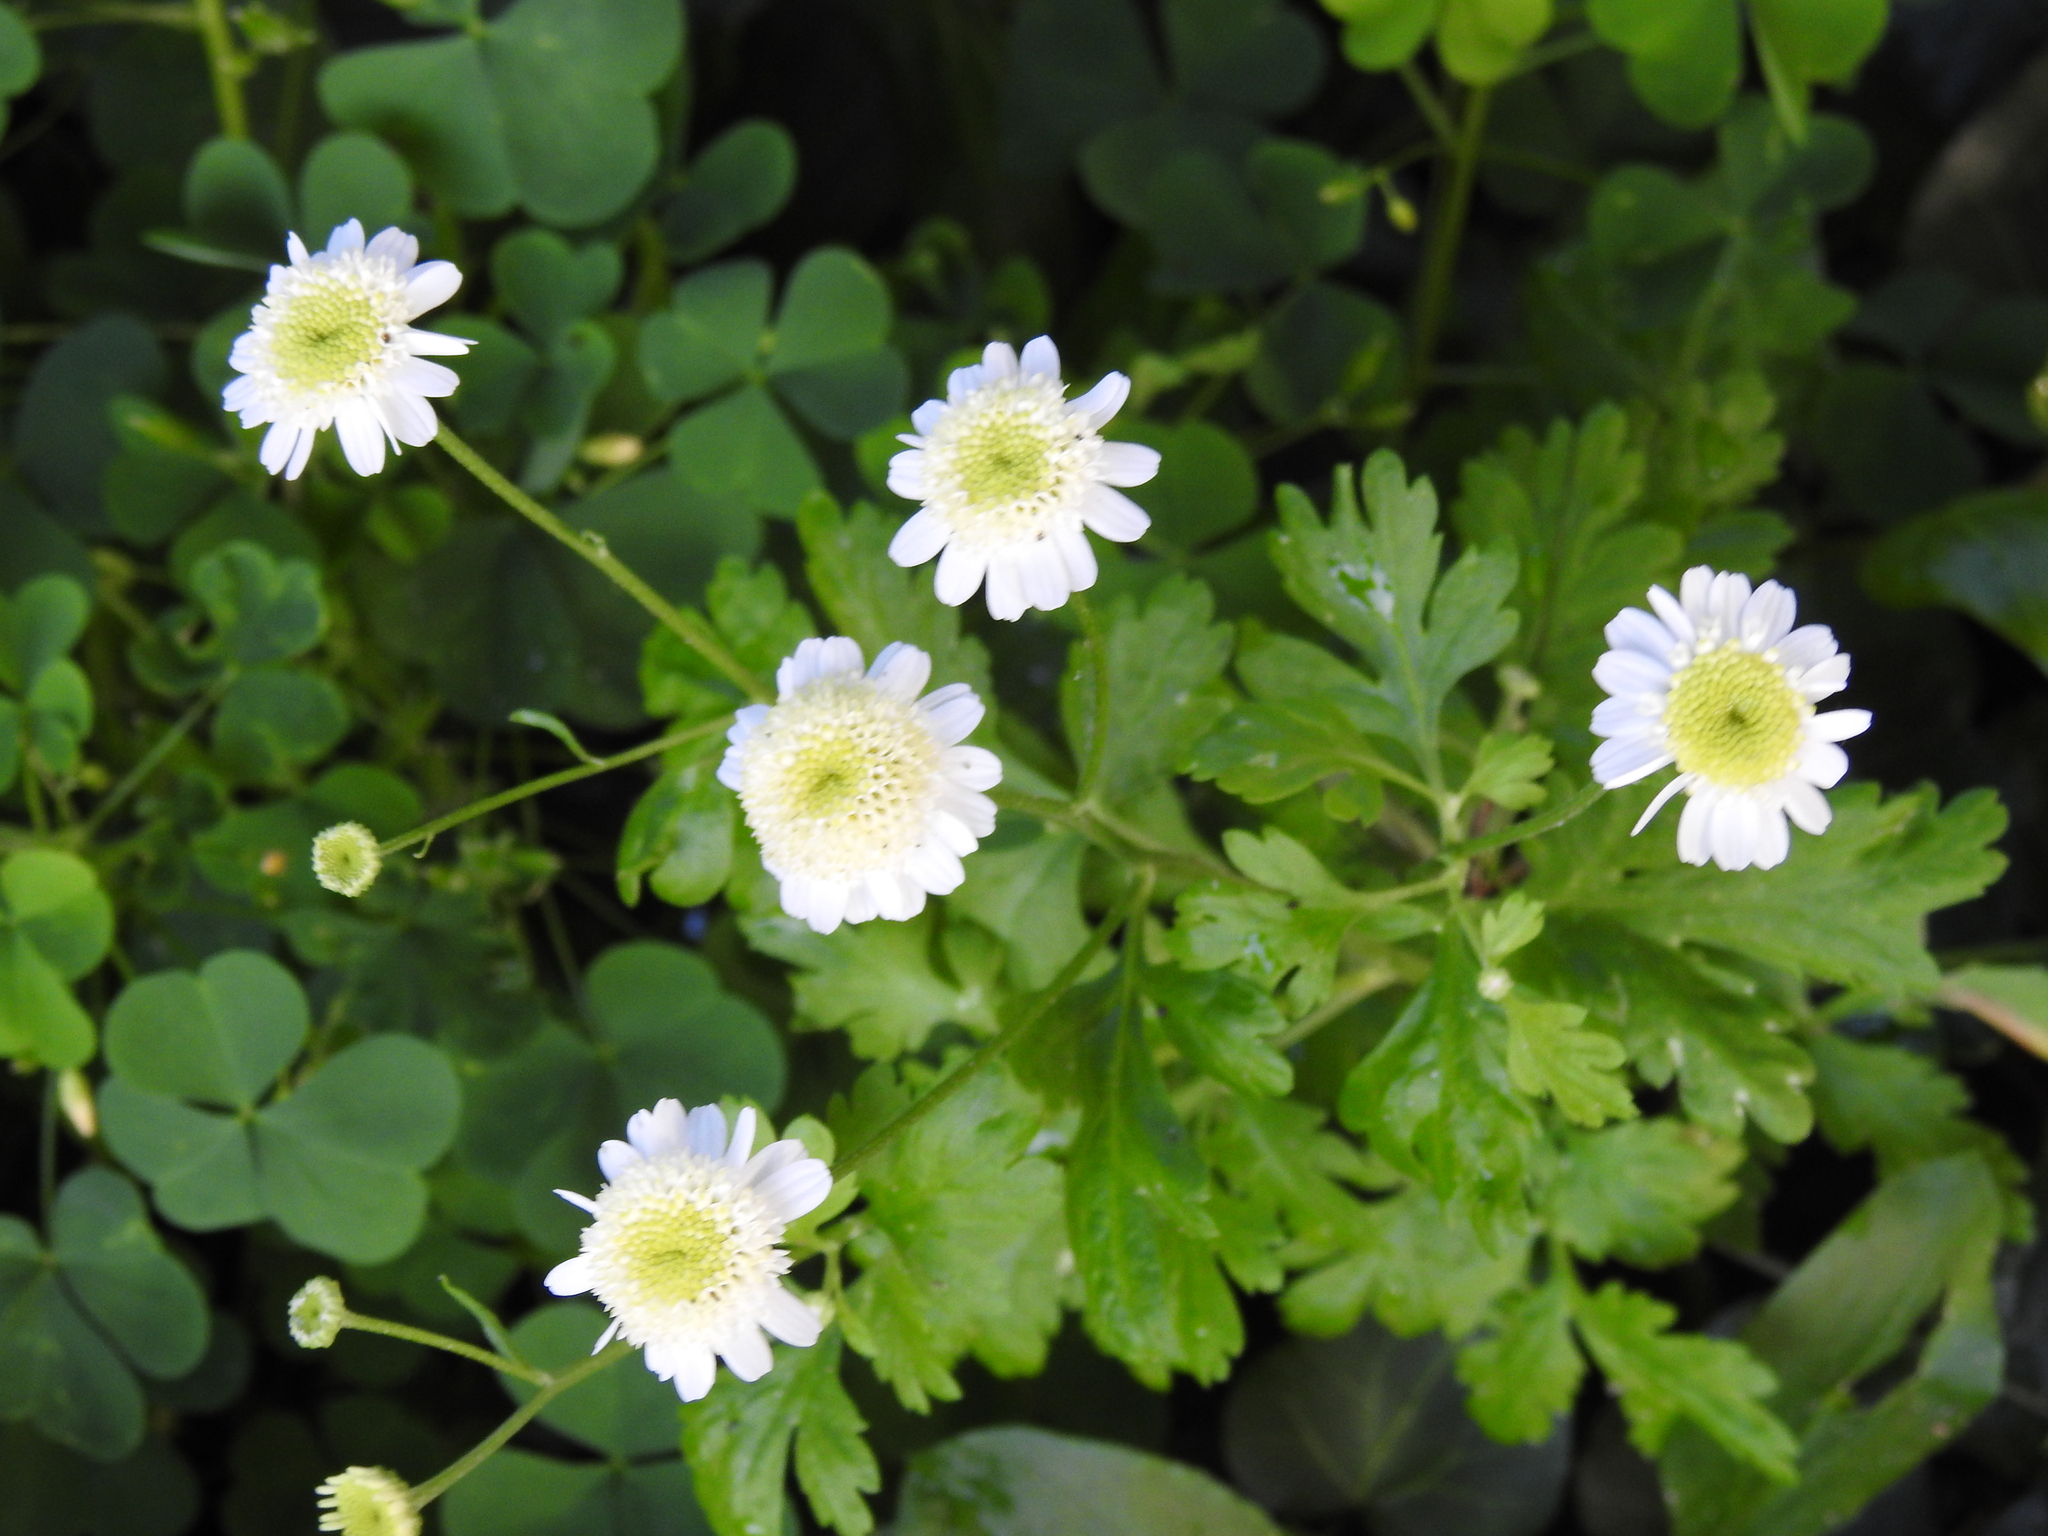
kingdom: Plantae
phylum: Tracheophyta
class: Magnoliopsida
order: Asterales
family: Asteraceae
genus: Tanacetum
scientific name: Tanacetum parthenium
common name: Feverfew
